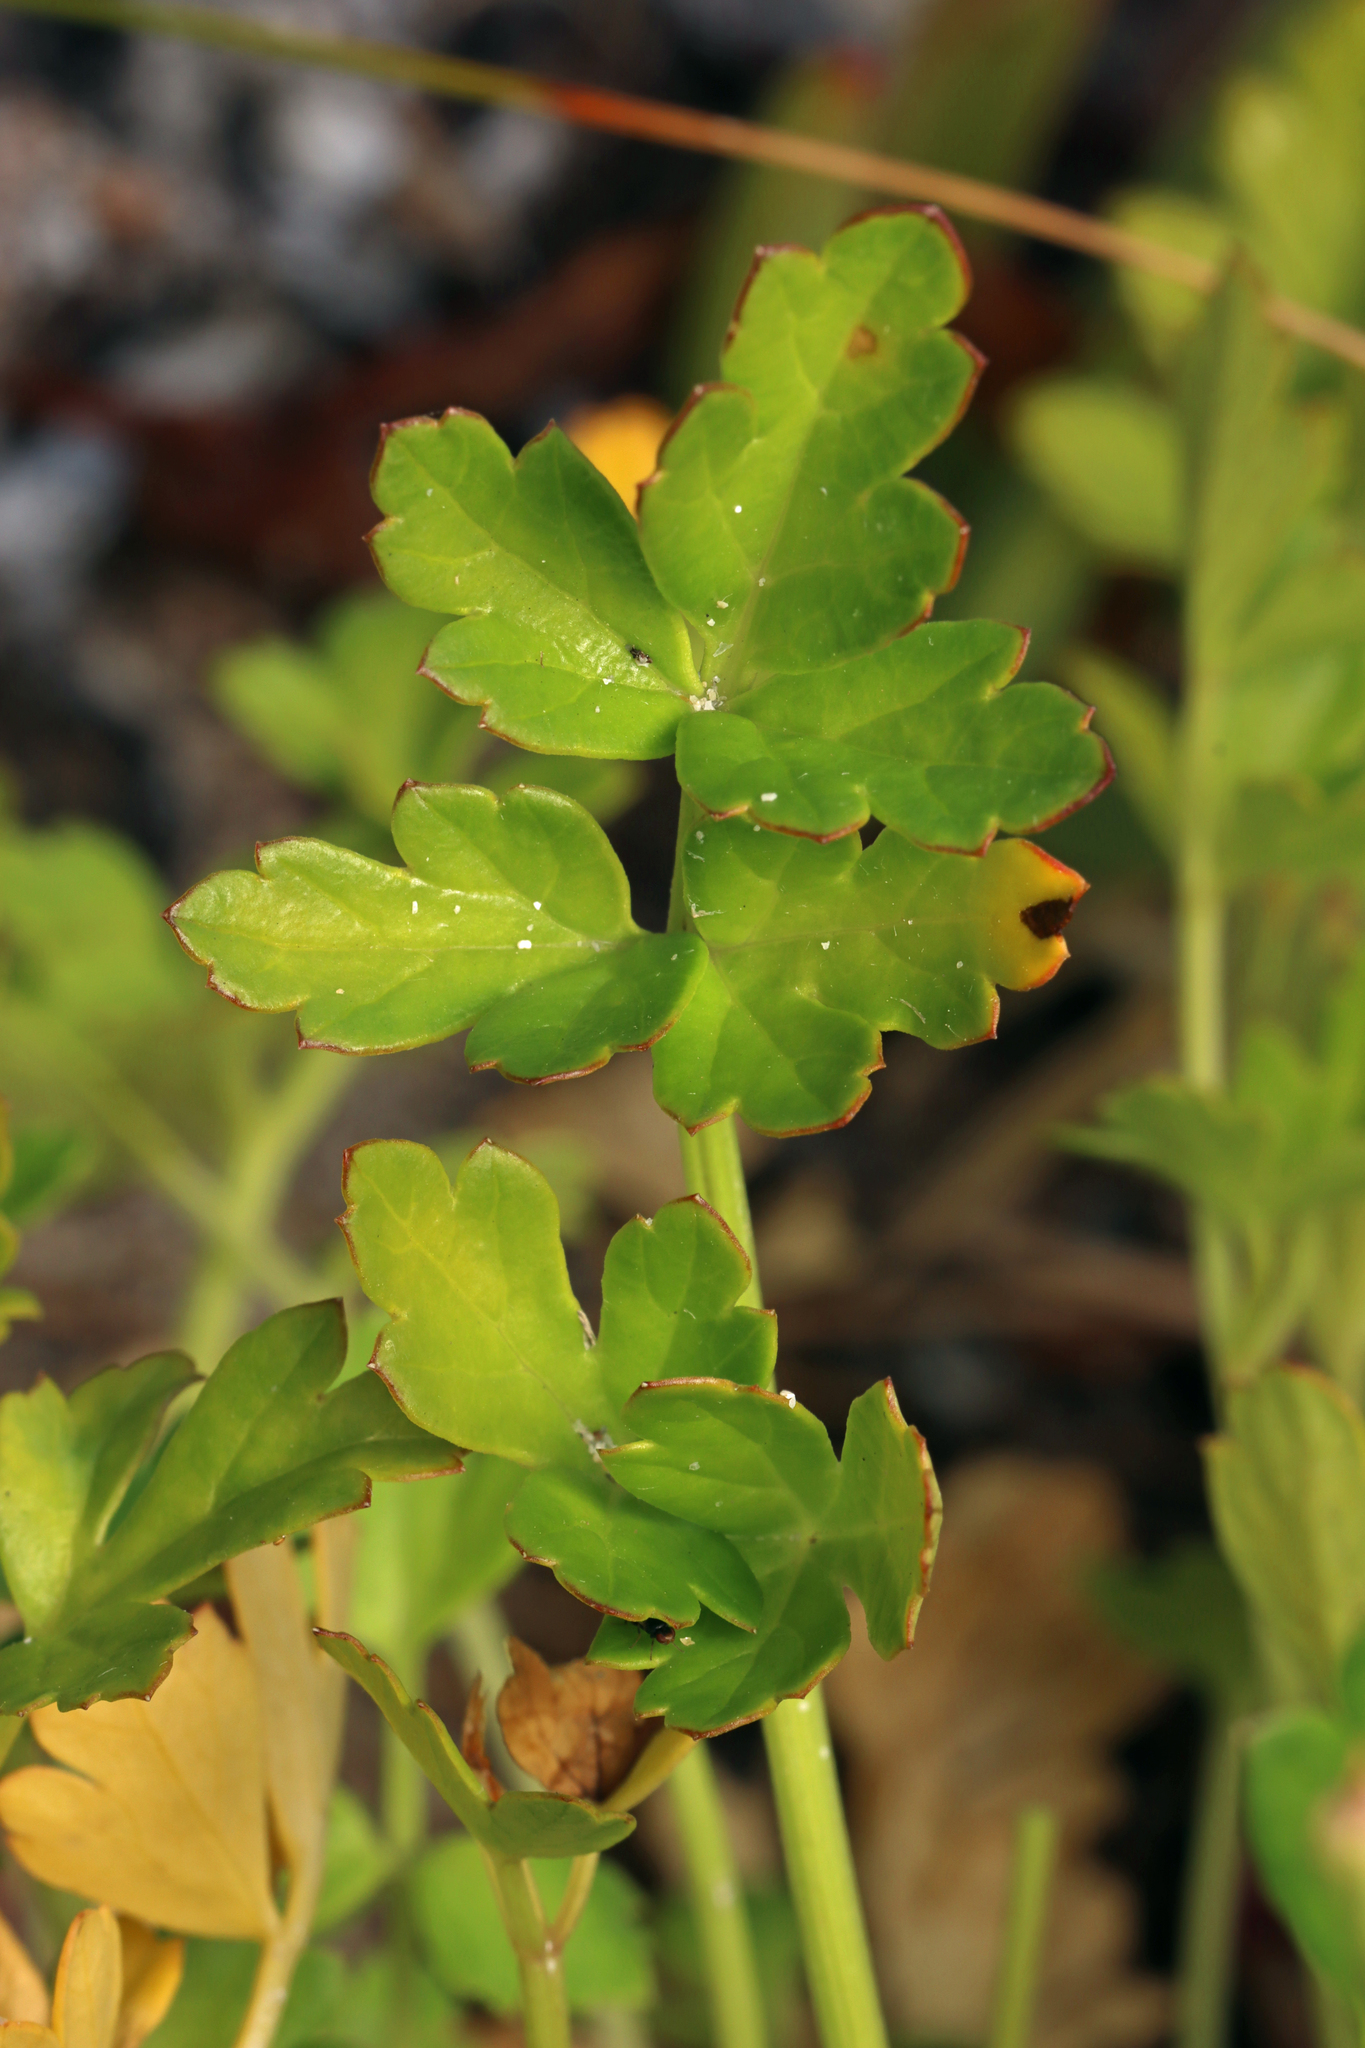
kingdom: Plantae
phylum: Tracheophyta
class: Magnoliopsida
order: Apiales
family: Apiaceae
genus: Apium
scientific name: Apium prostratum
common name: Prostrate marshwort
